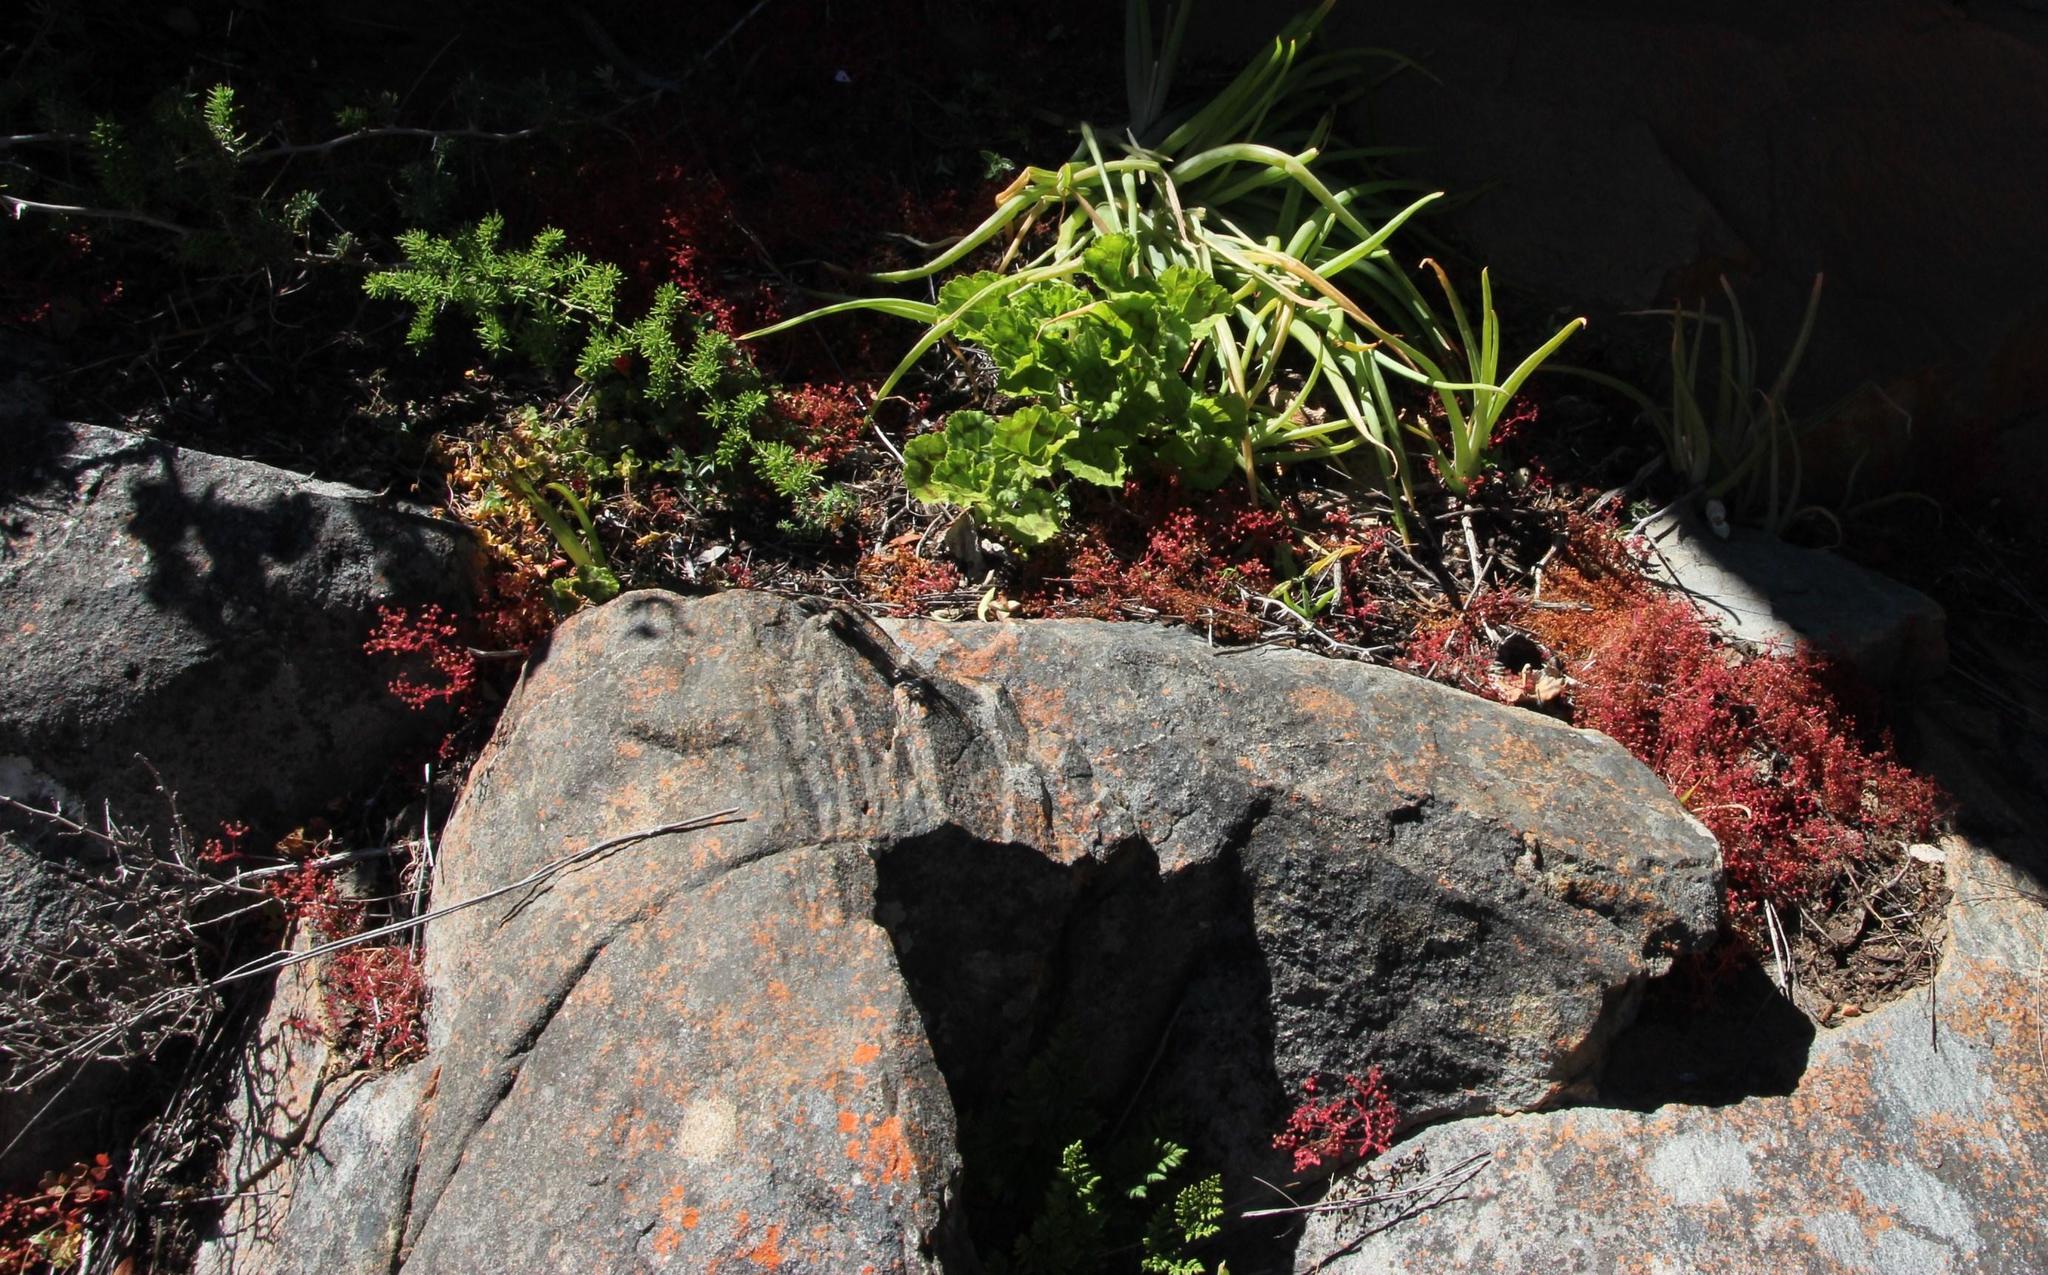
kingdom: Plantae
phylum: Tracheophyta
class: Magnoliopsida
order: Saxifragales
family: Crassulaceae
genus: Crassula
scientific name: Crassula strigosa
